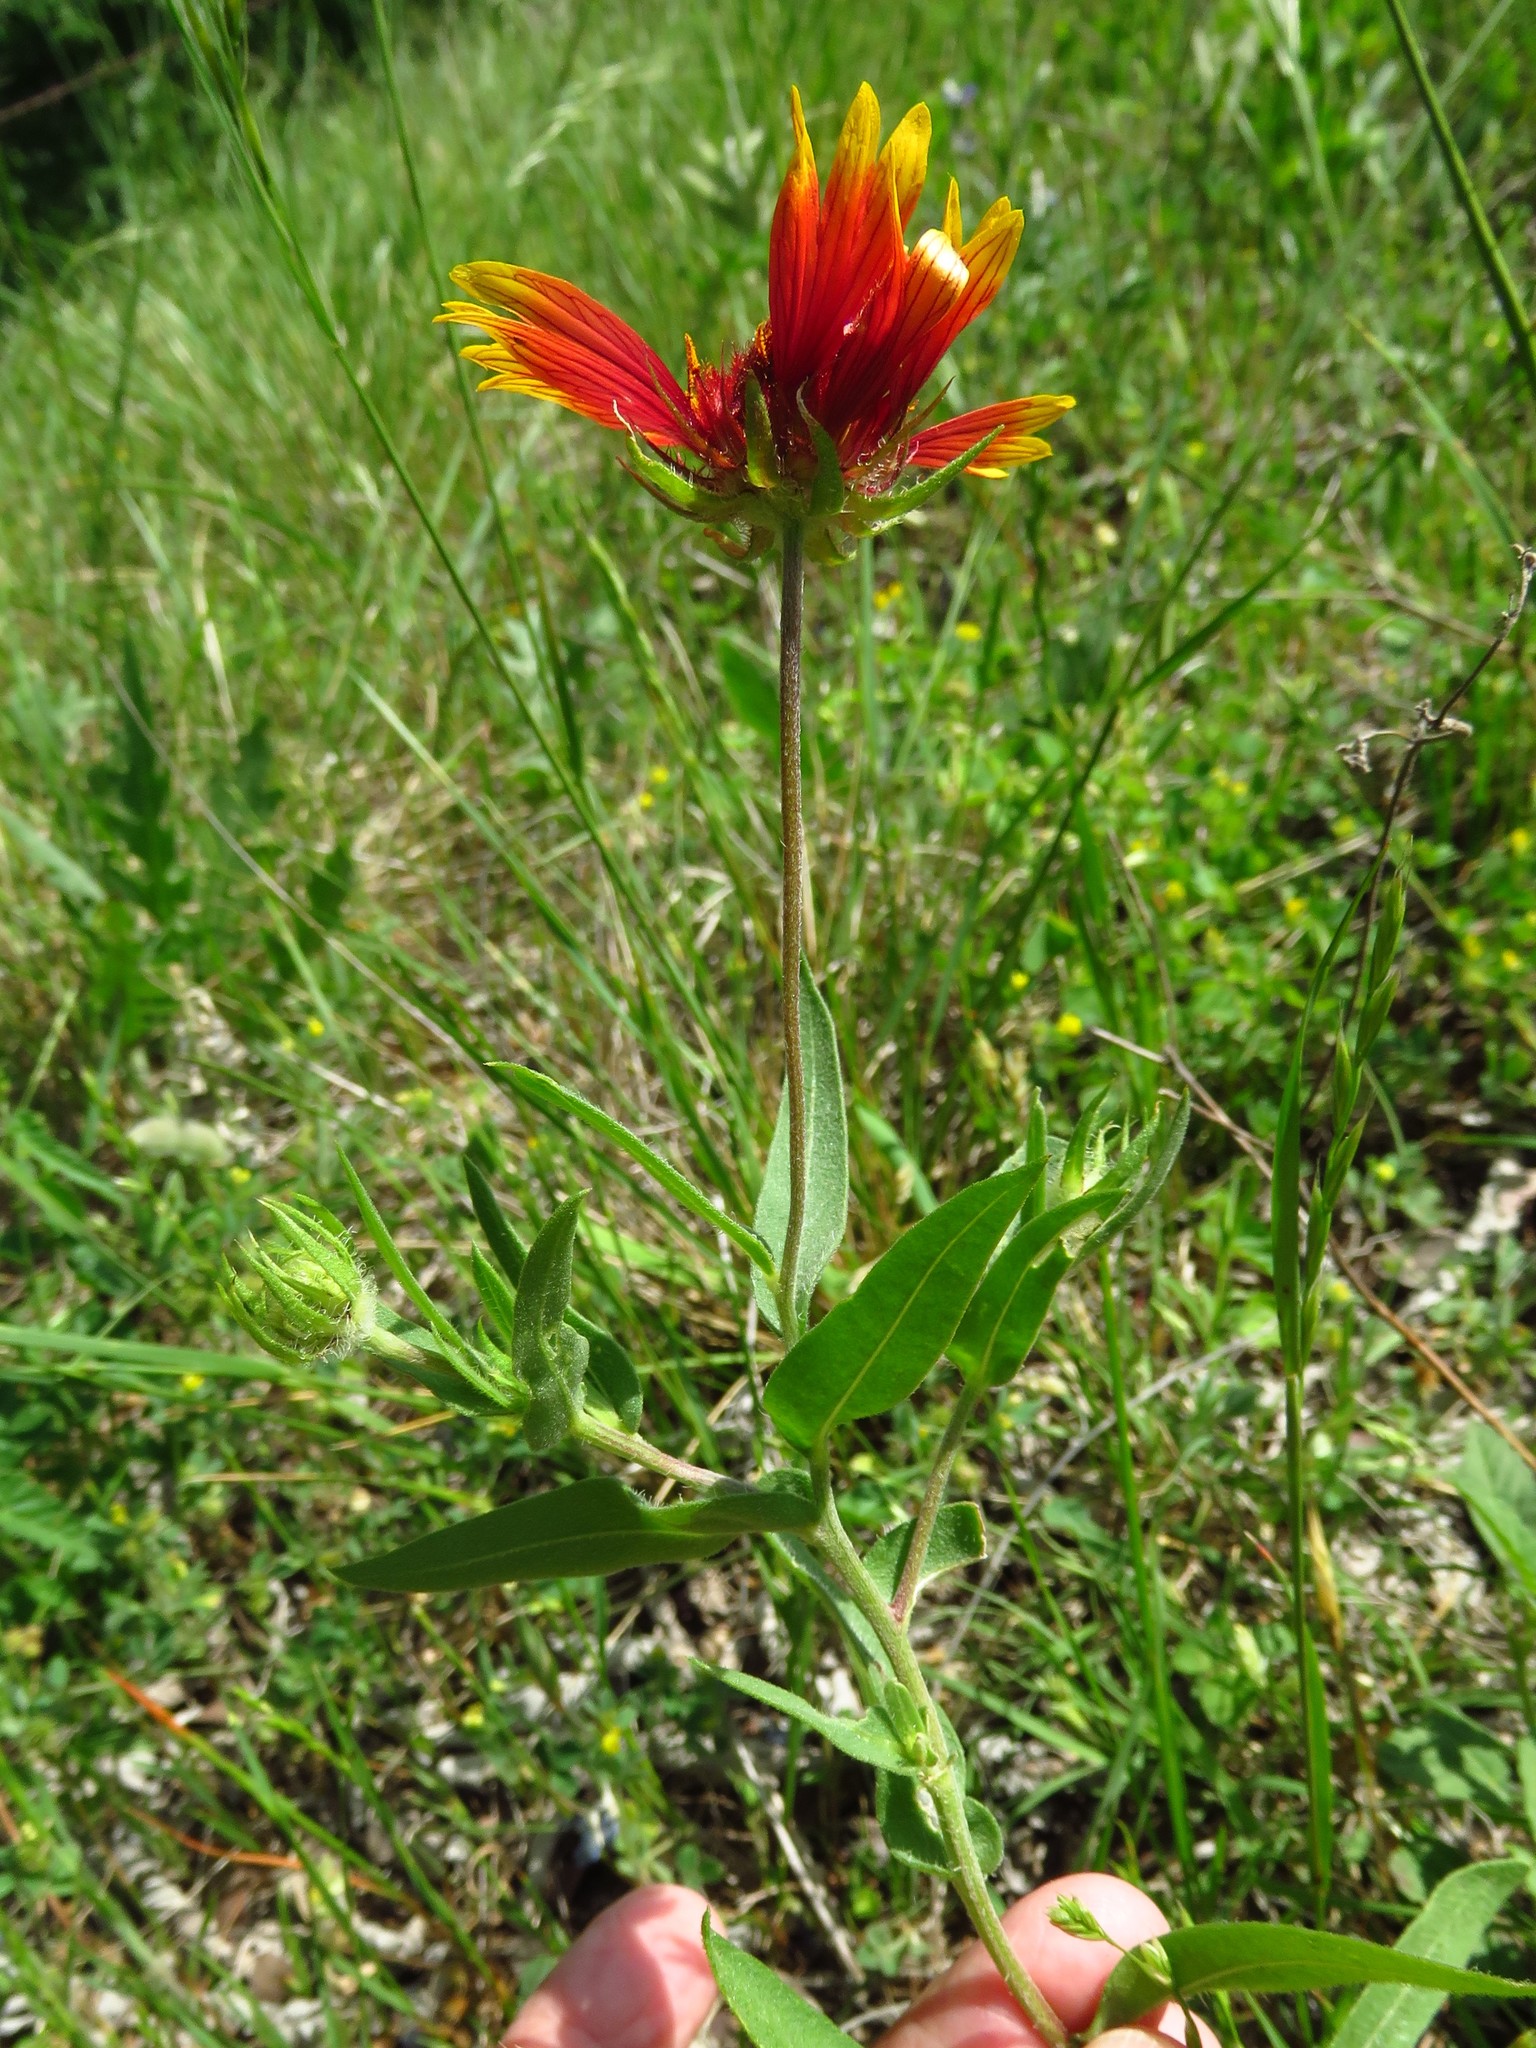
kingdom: Plantae
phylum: Tracheophyta
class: Magnoliopsida
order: Asterales
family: Asteraceae
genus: Gaillardia
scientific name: Gaillardia pulchella
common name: Firewheel
